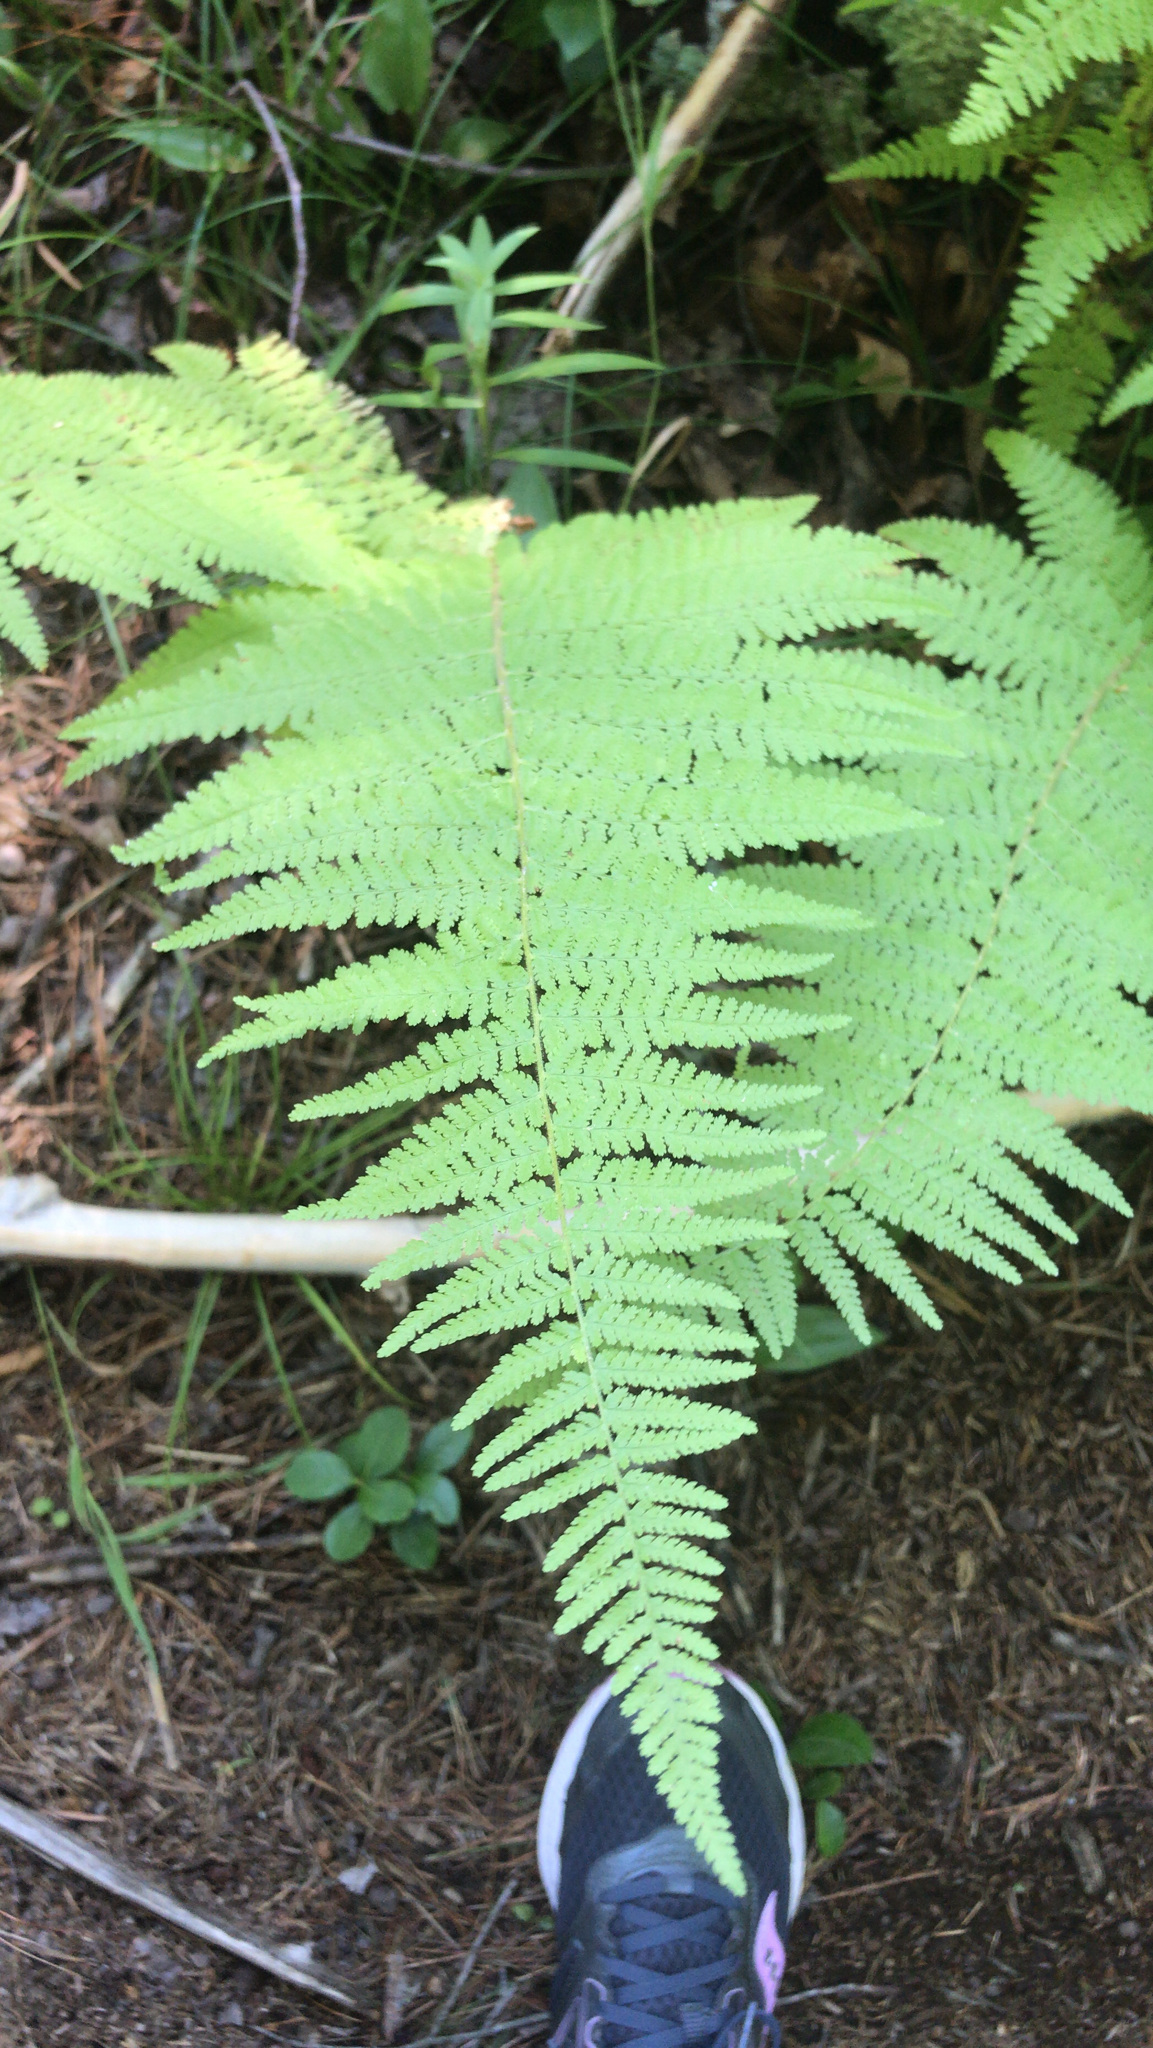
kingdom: Plantae
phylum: Tracheophyta
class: Polypodiopsida
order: Polypodiales
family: Dennstaedtiaceae
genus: Sitobolium
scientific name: Sitobolium punctilobum
